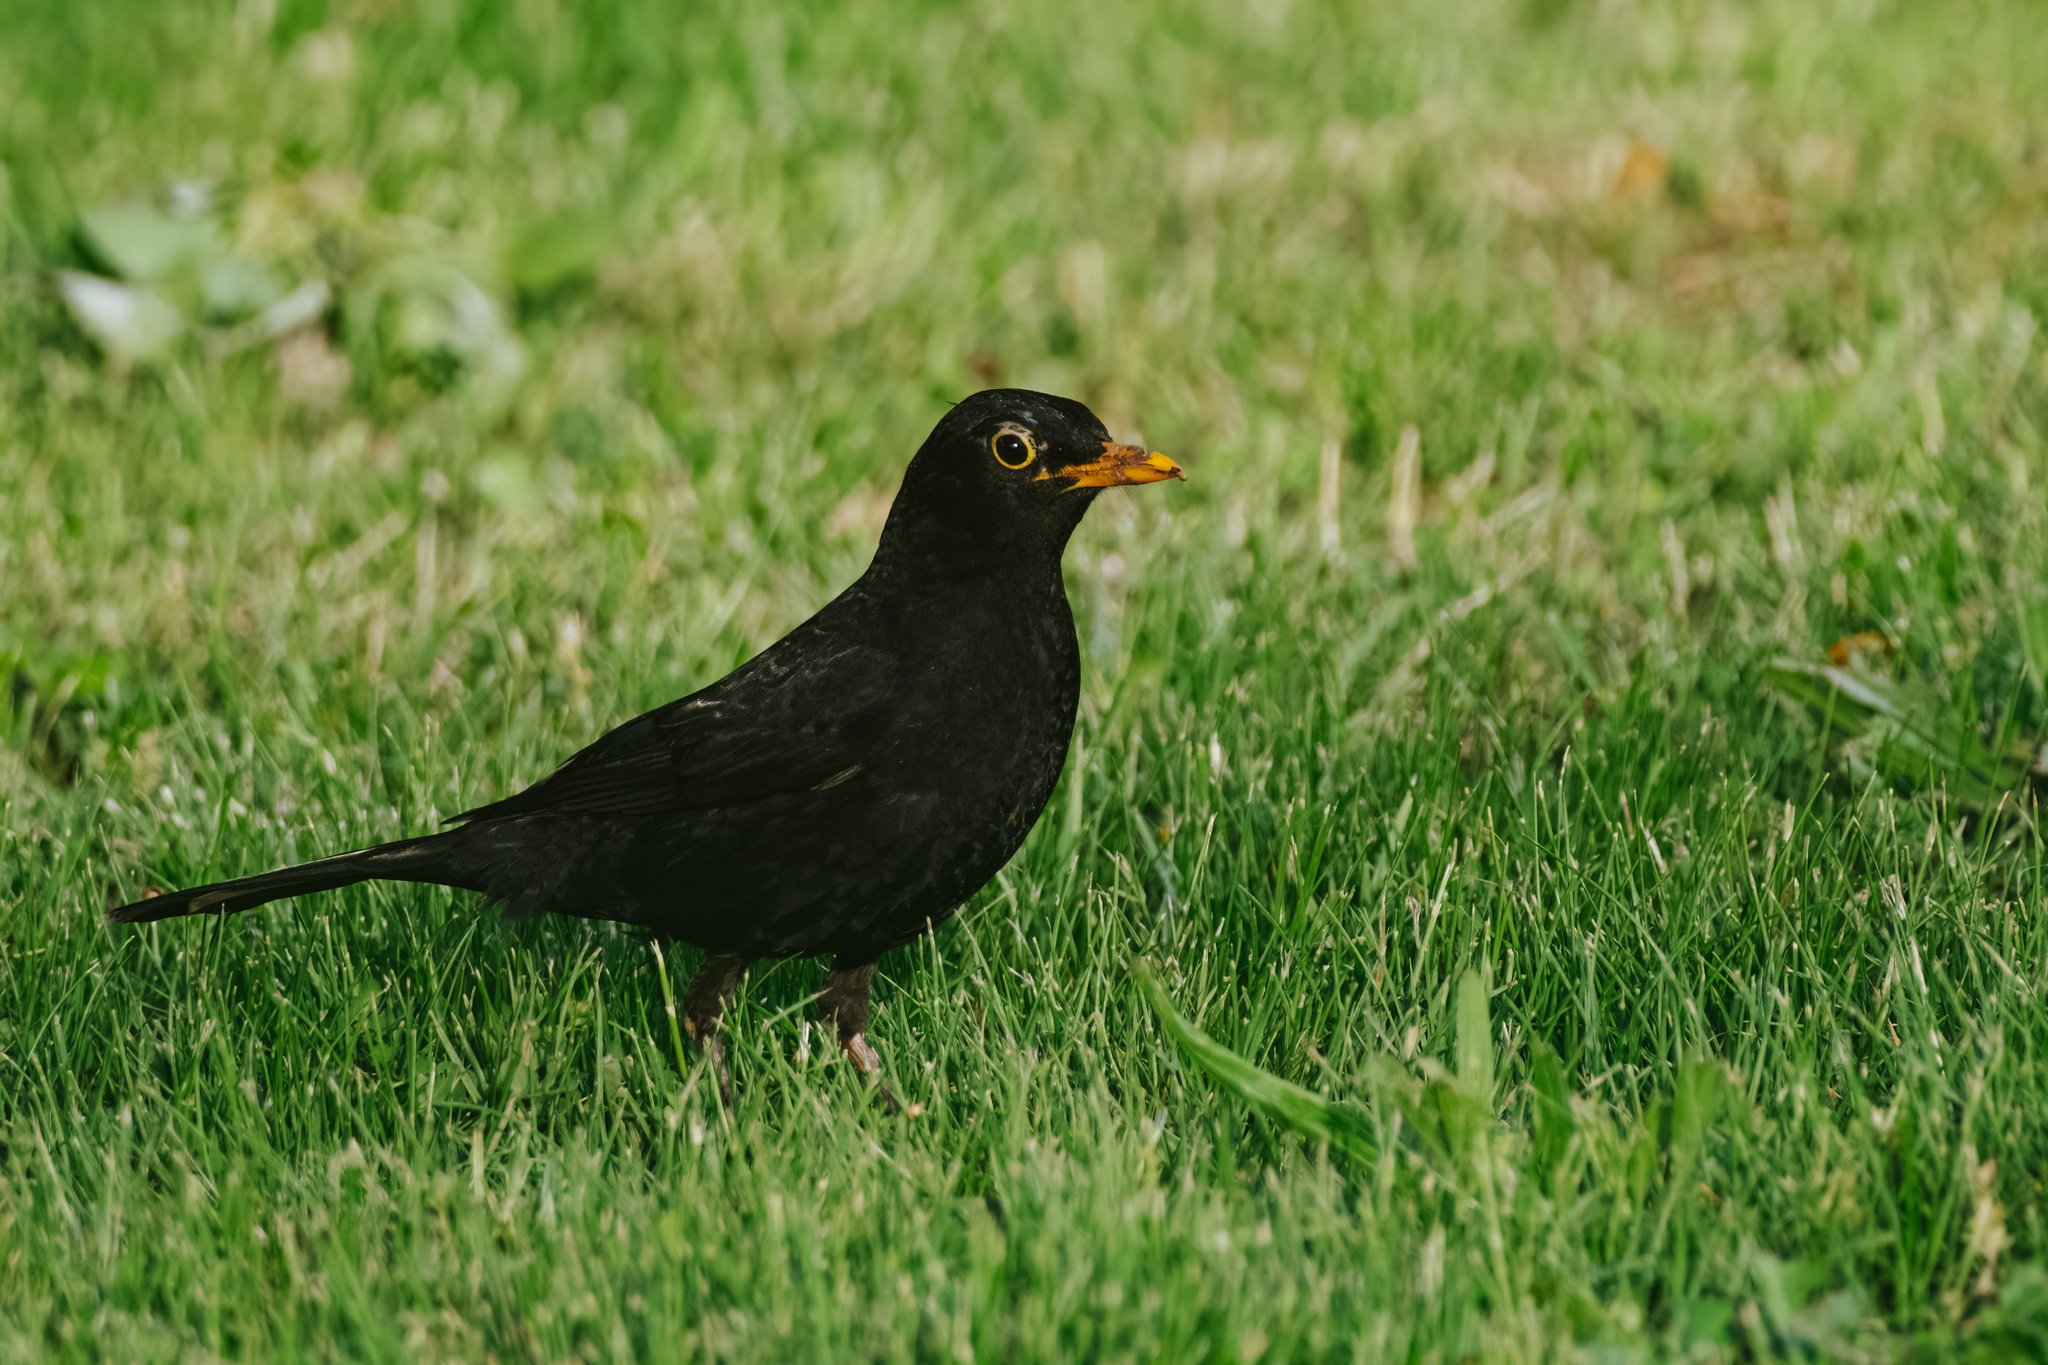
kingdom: Animalia
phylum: Chordata
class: Aves
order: Passeriformes
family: Turdidae
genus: Turdus
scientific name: Turdus merula
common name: Common blackbird
